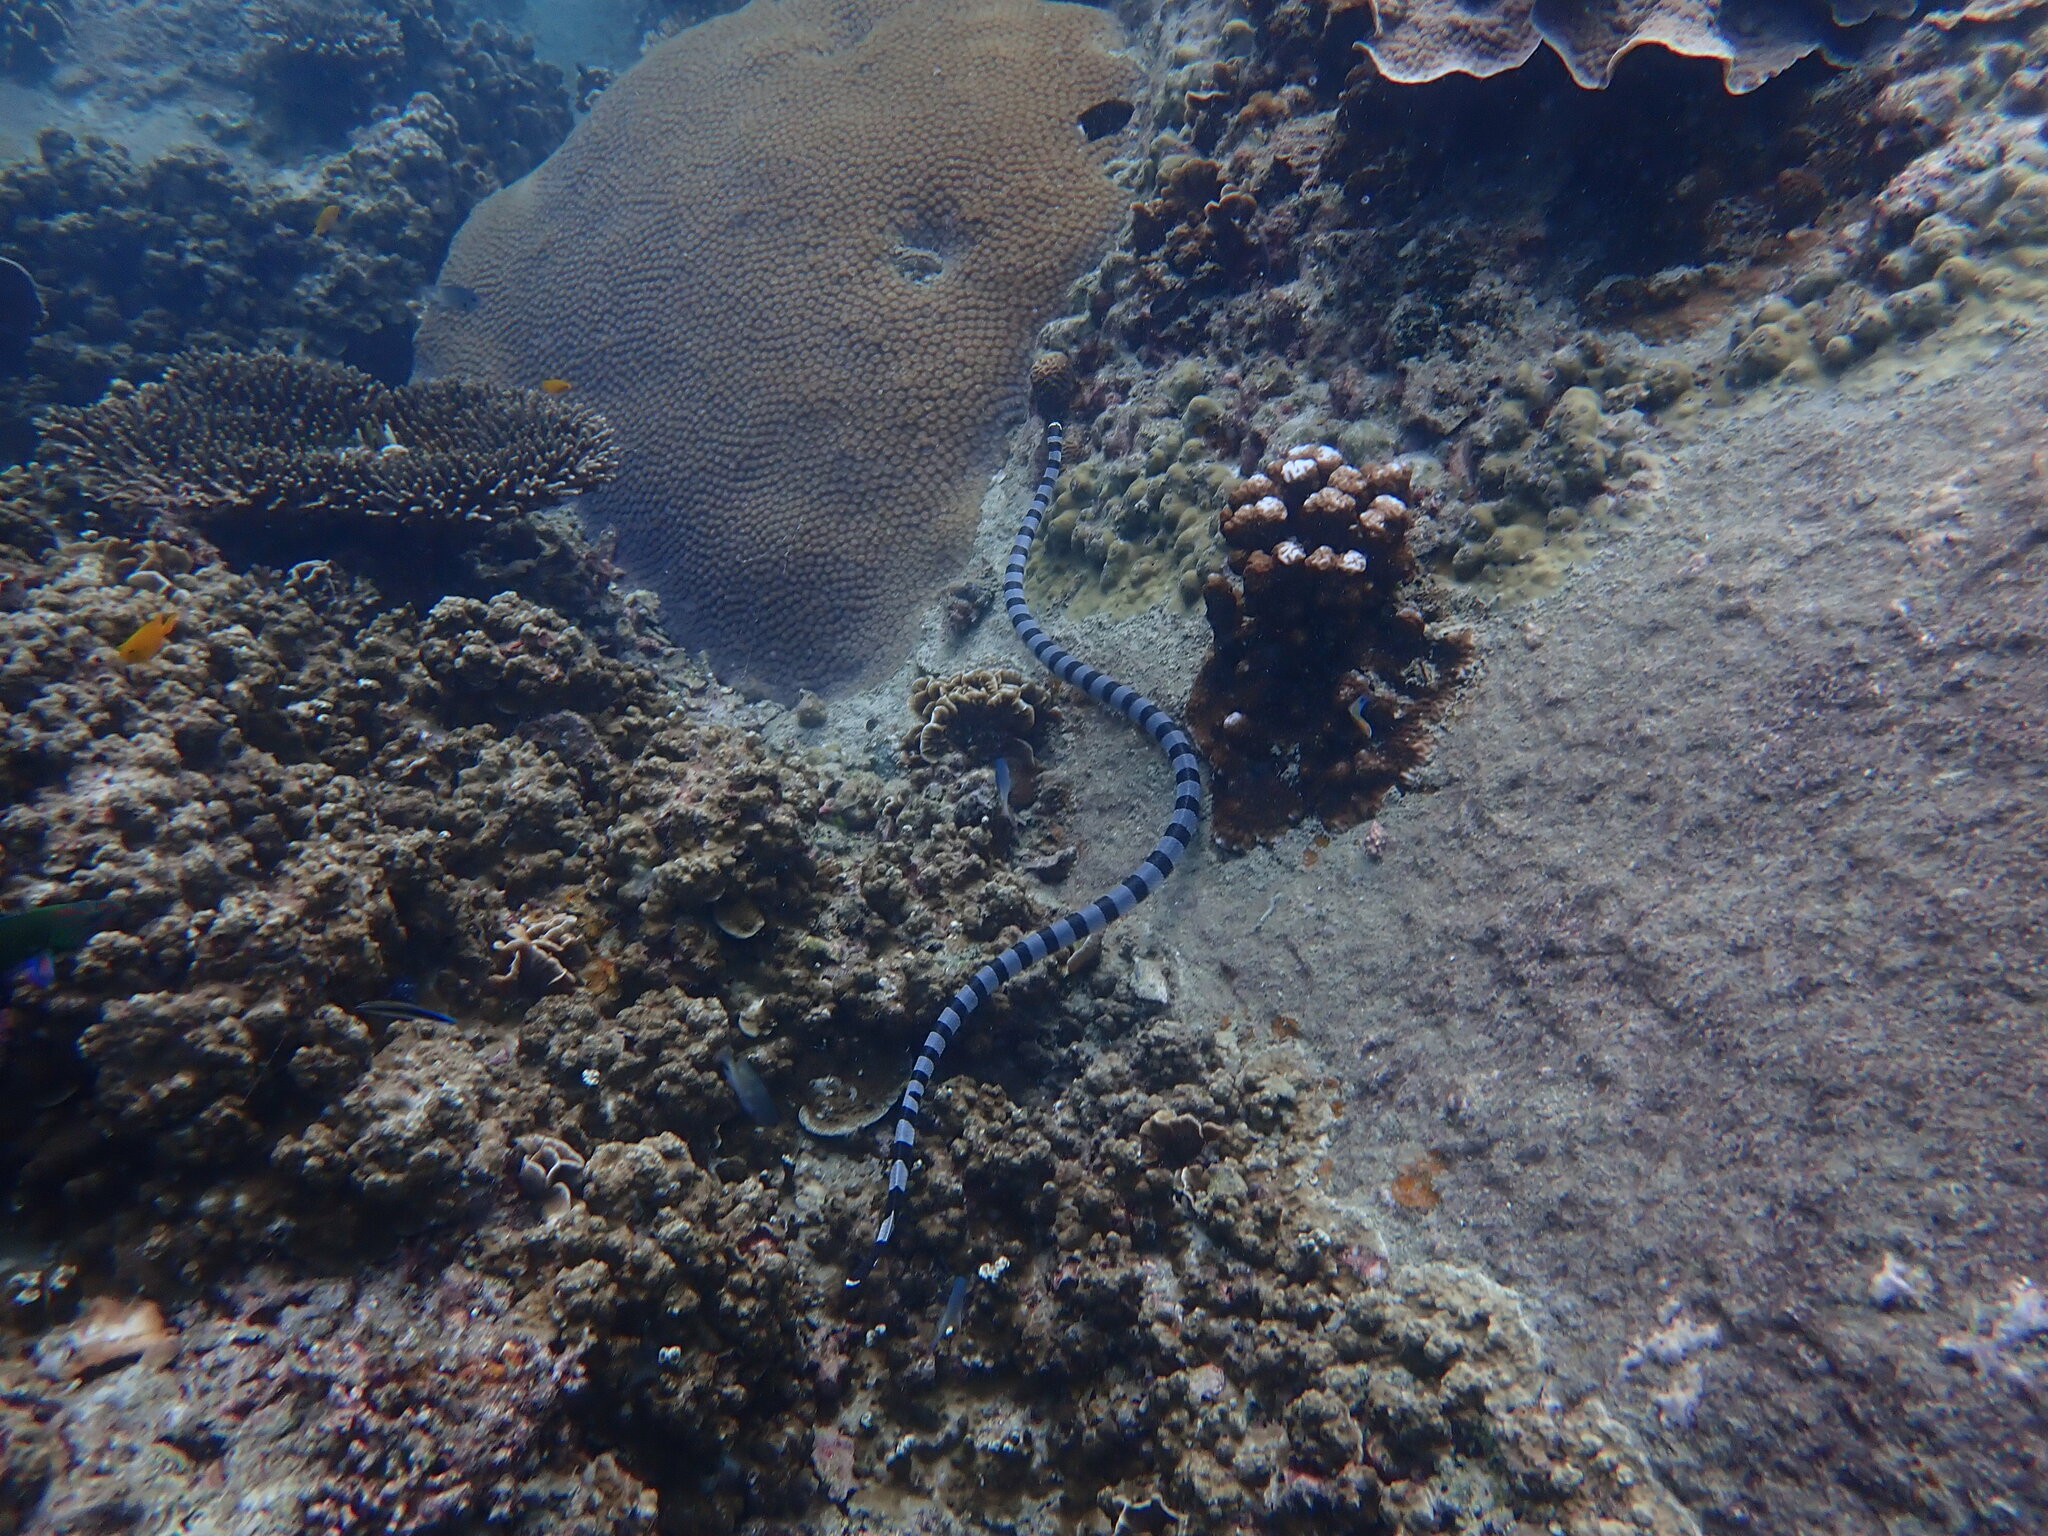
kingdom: Animalia
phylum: Chordata
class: Squamata
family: Elapidae
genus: Laticauda
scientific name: Laticauda colubrina
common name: Yellow-lipped sea krait
